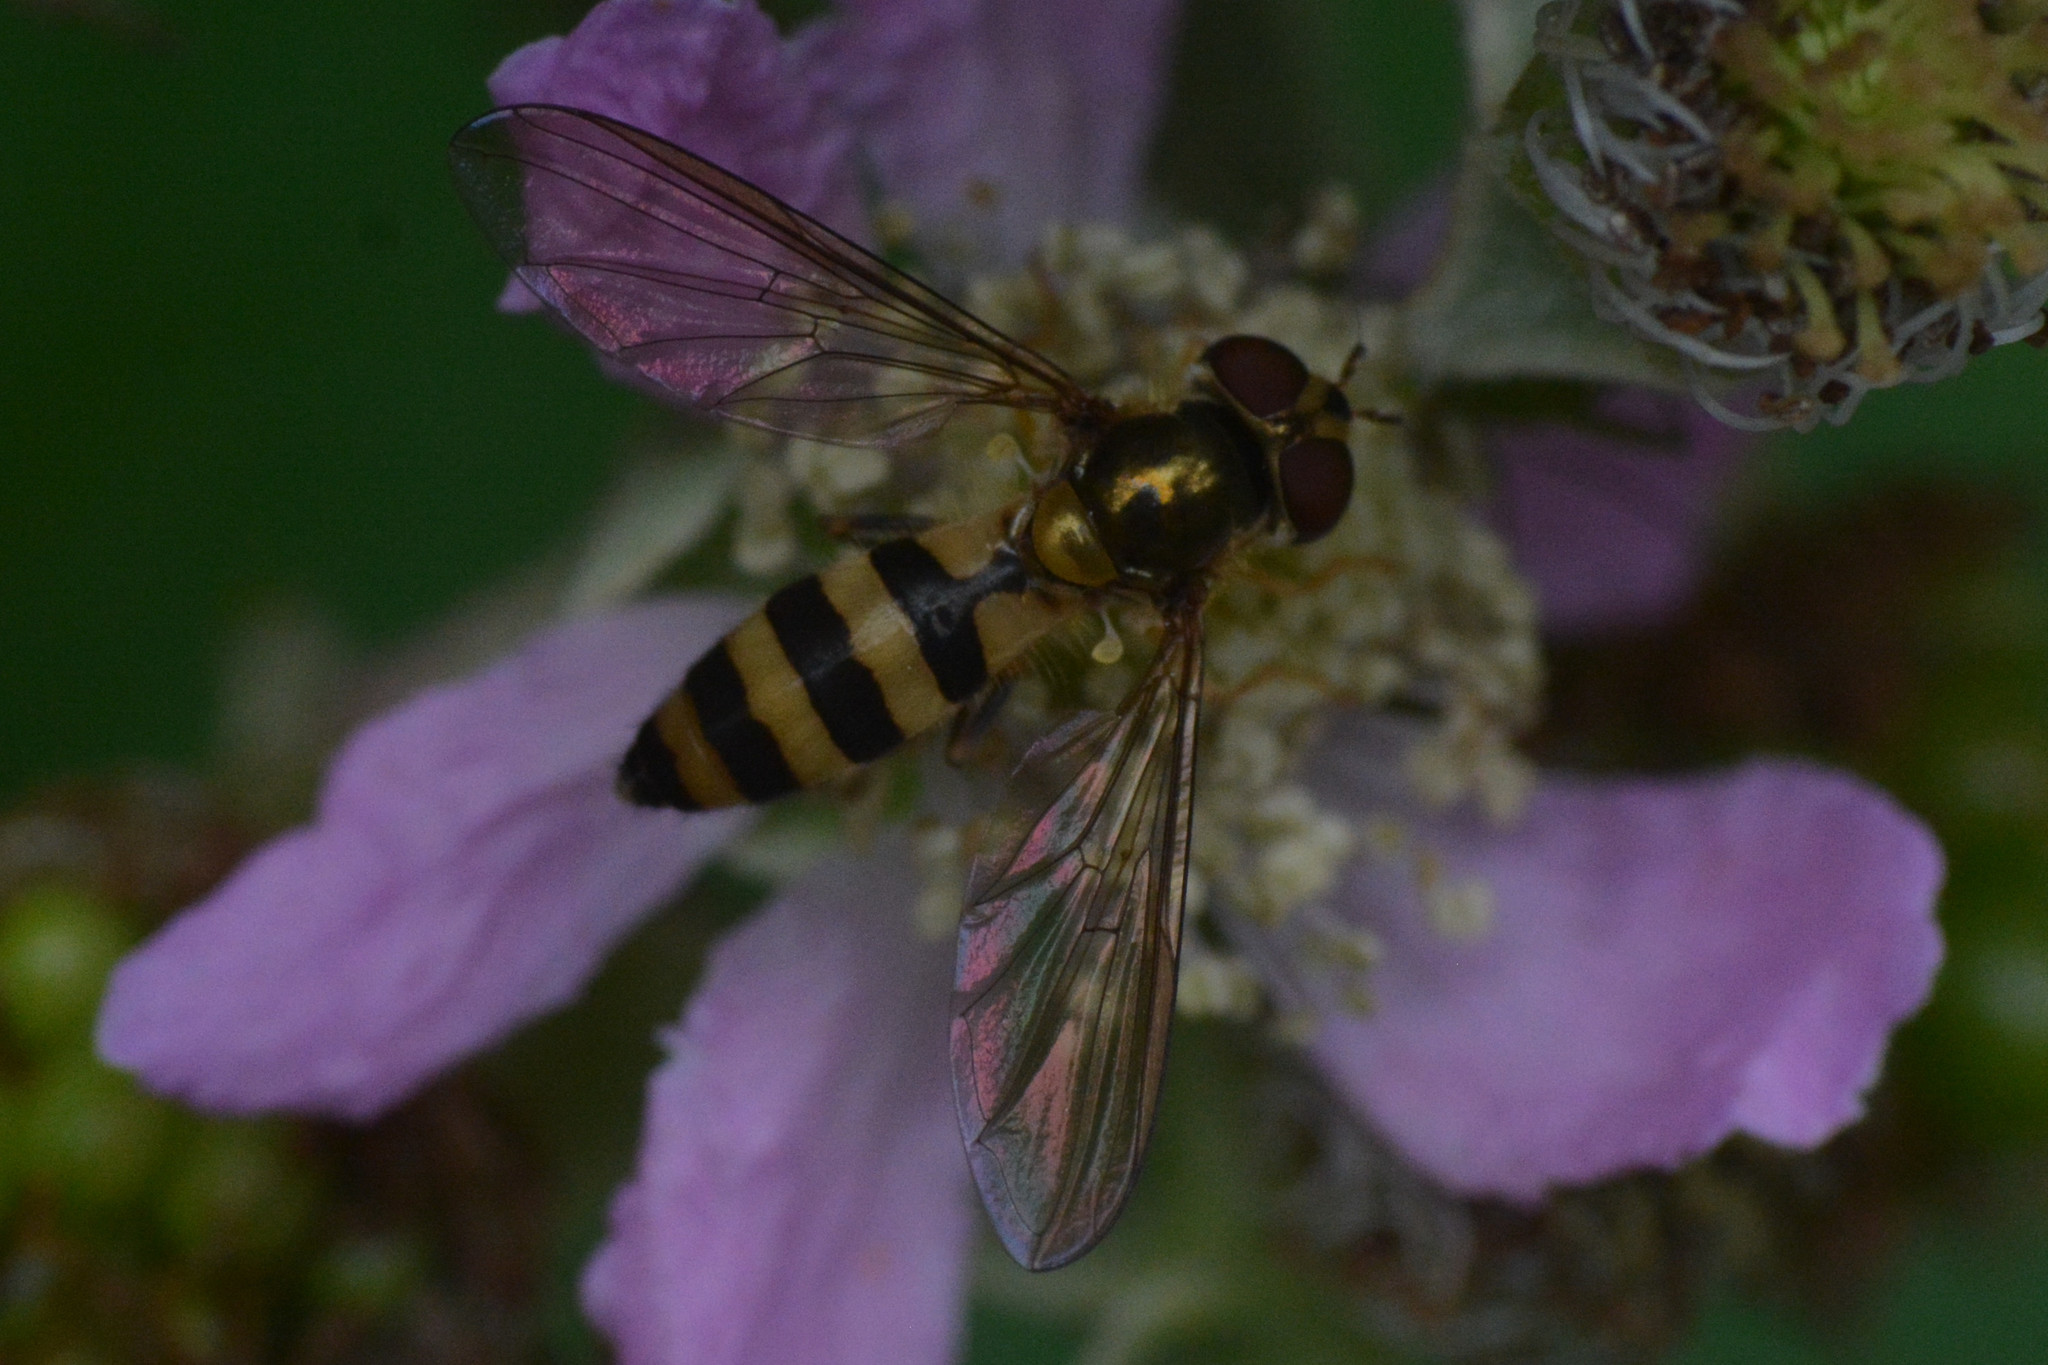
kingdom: Animalia
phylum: Arthropoda
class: Insecta
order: Diptera
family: Syrphidae
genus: Meliscaeva
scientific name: Meliscaeva cinctella
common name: American thintail fly
